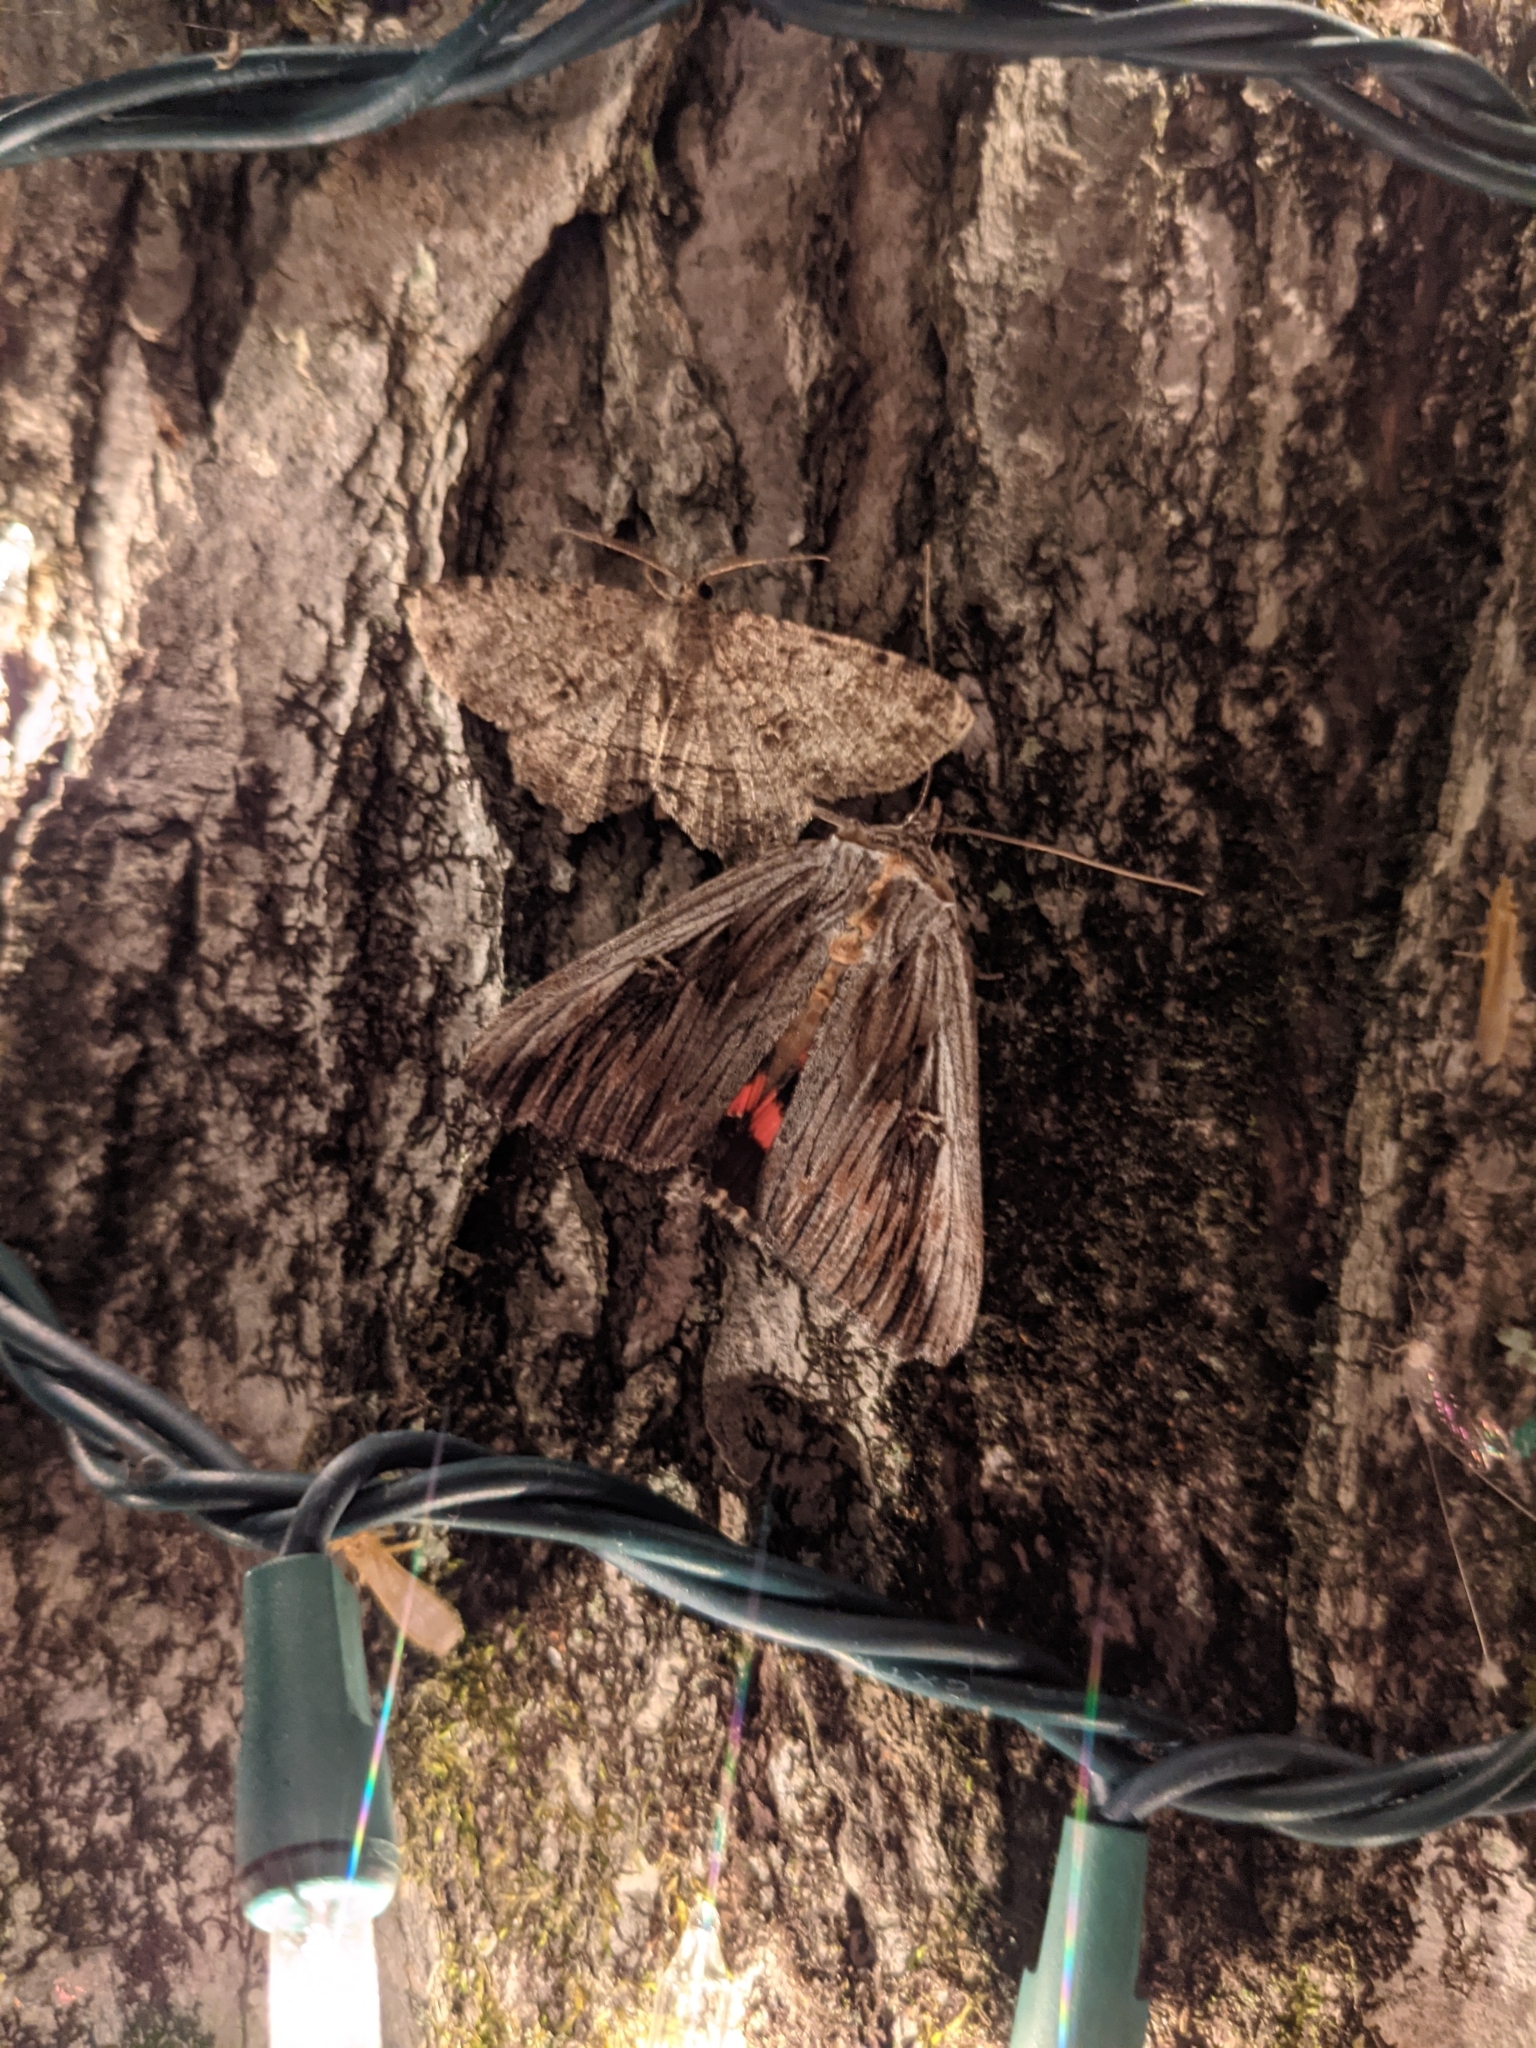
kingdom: Animalia
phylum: Arthropoda
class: Insecta
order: Lepidoptera
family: Erebidae
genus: Catocala
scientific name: Catocala herodias
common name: Pine barrens underwing
